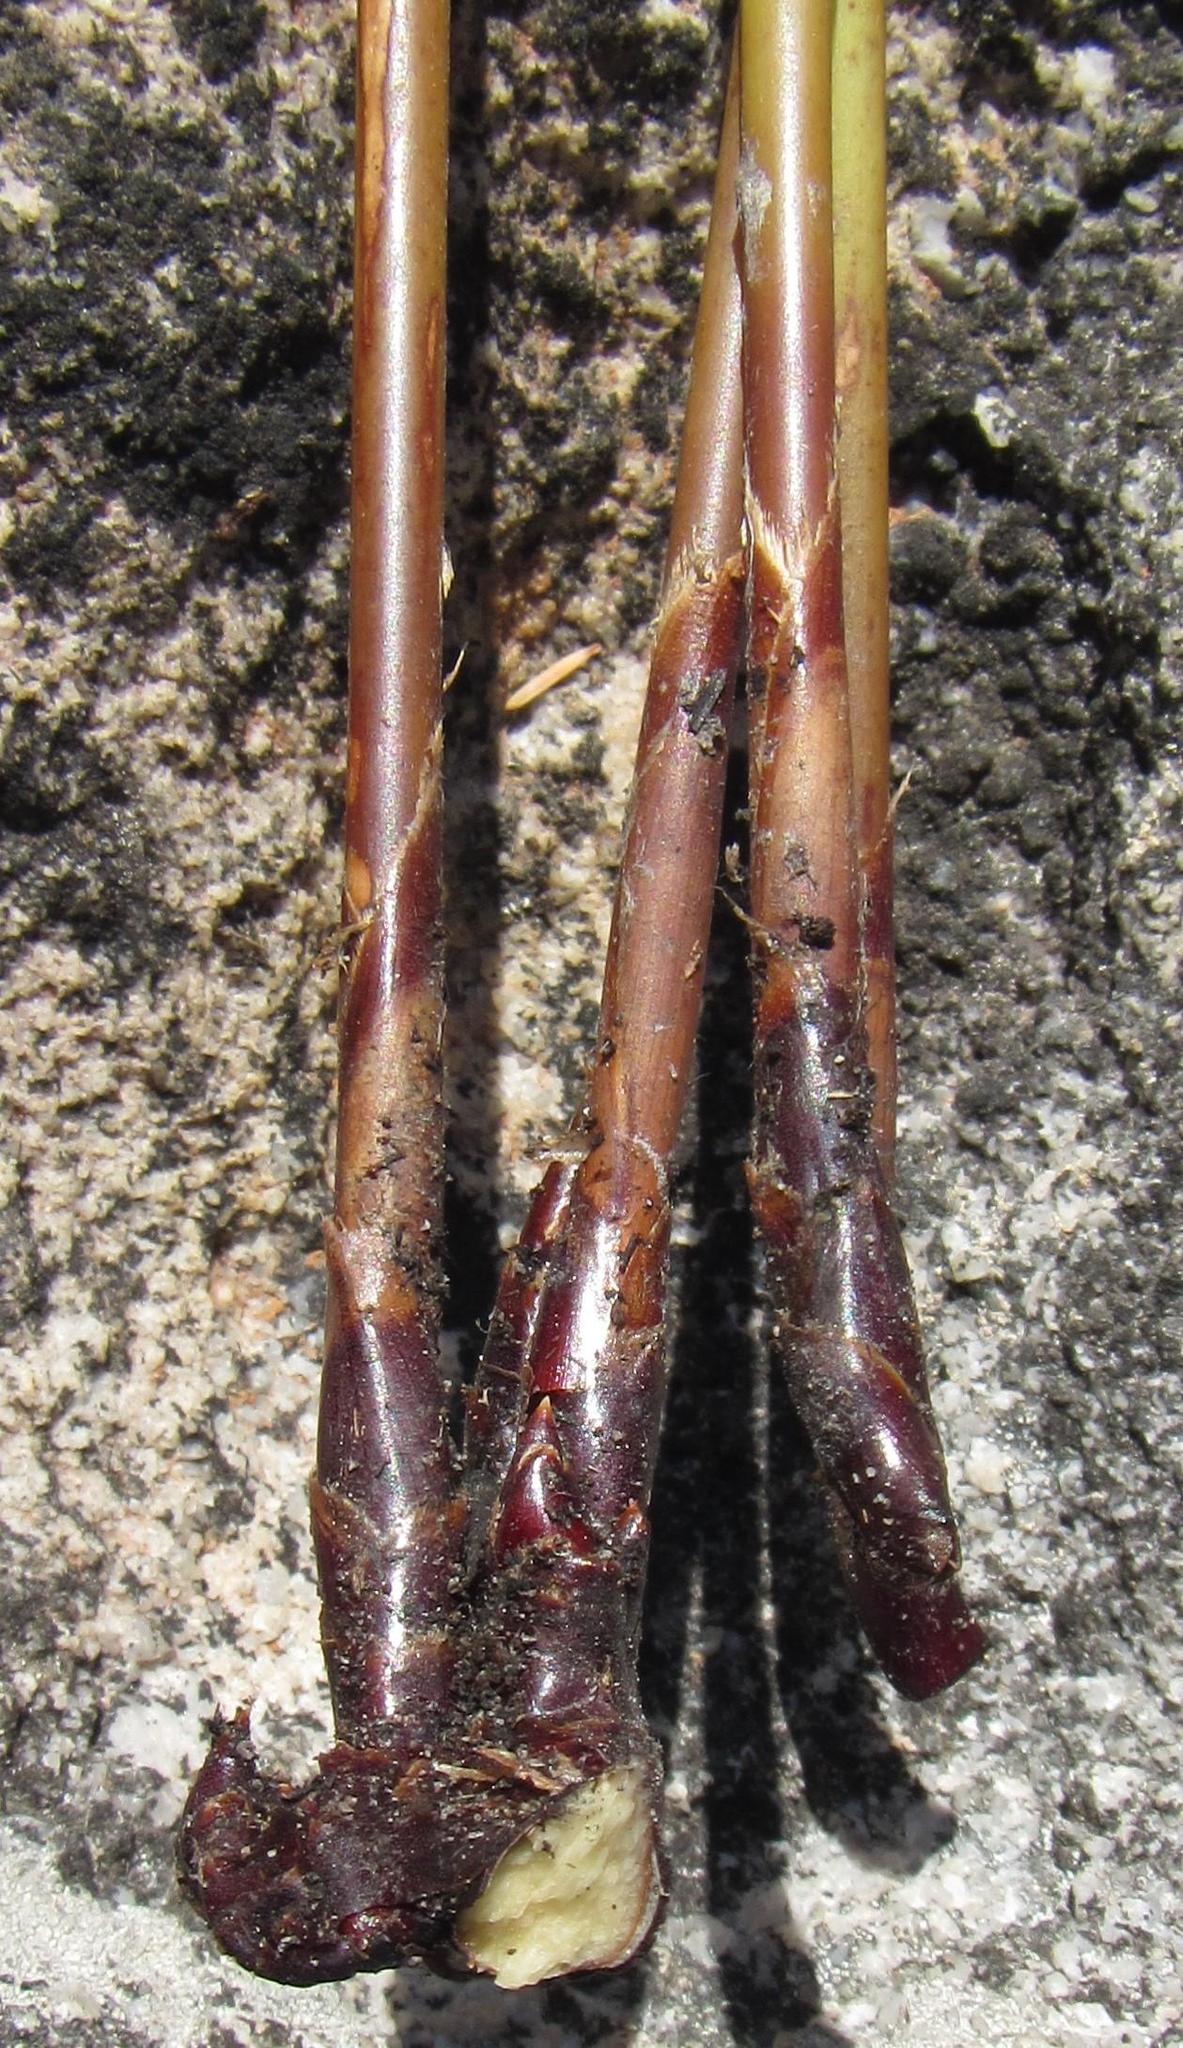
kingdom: Plantae
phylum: Tracheophyta
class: Liliopsida
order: Poales
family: Restionaceae
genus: Ceratocaryum
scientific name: Ceratocaryum decipiens
